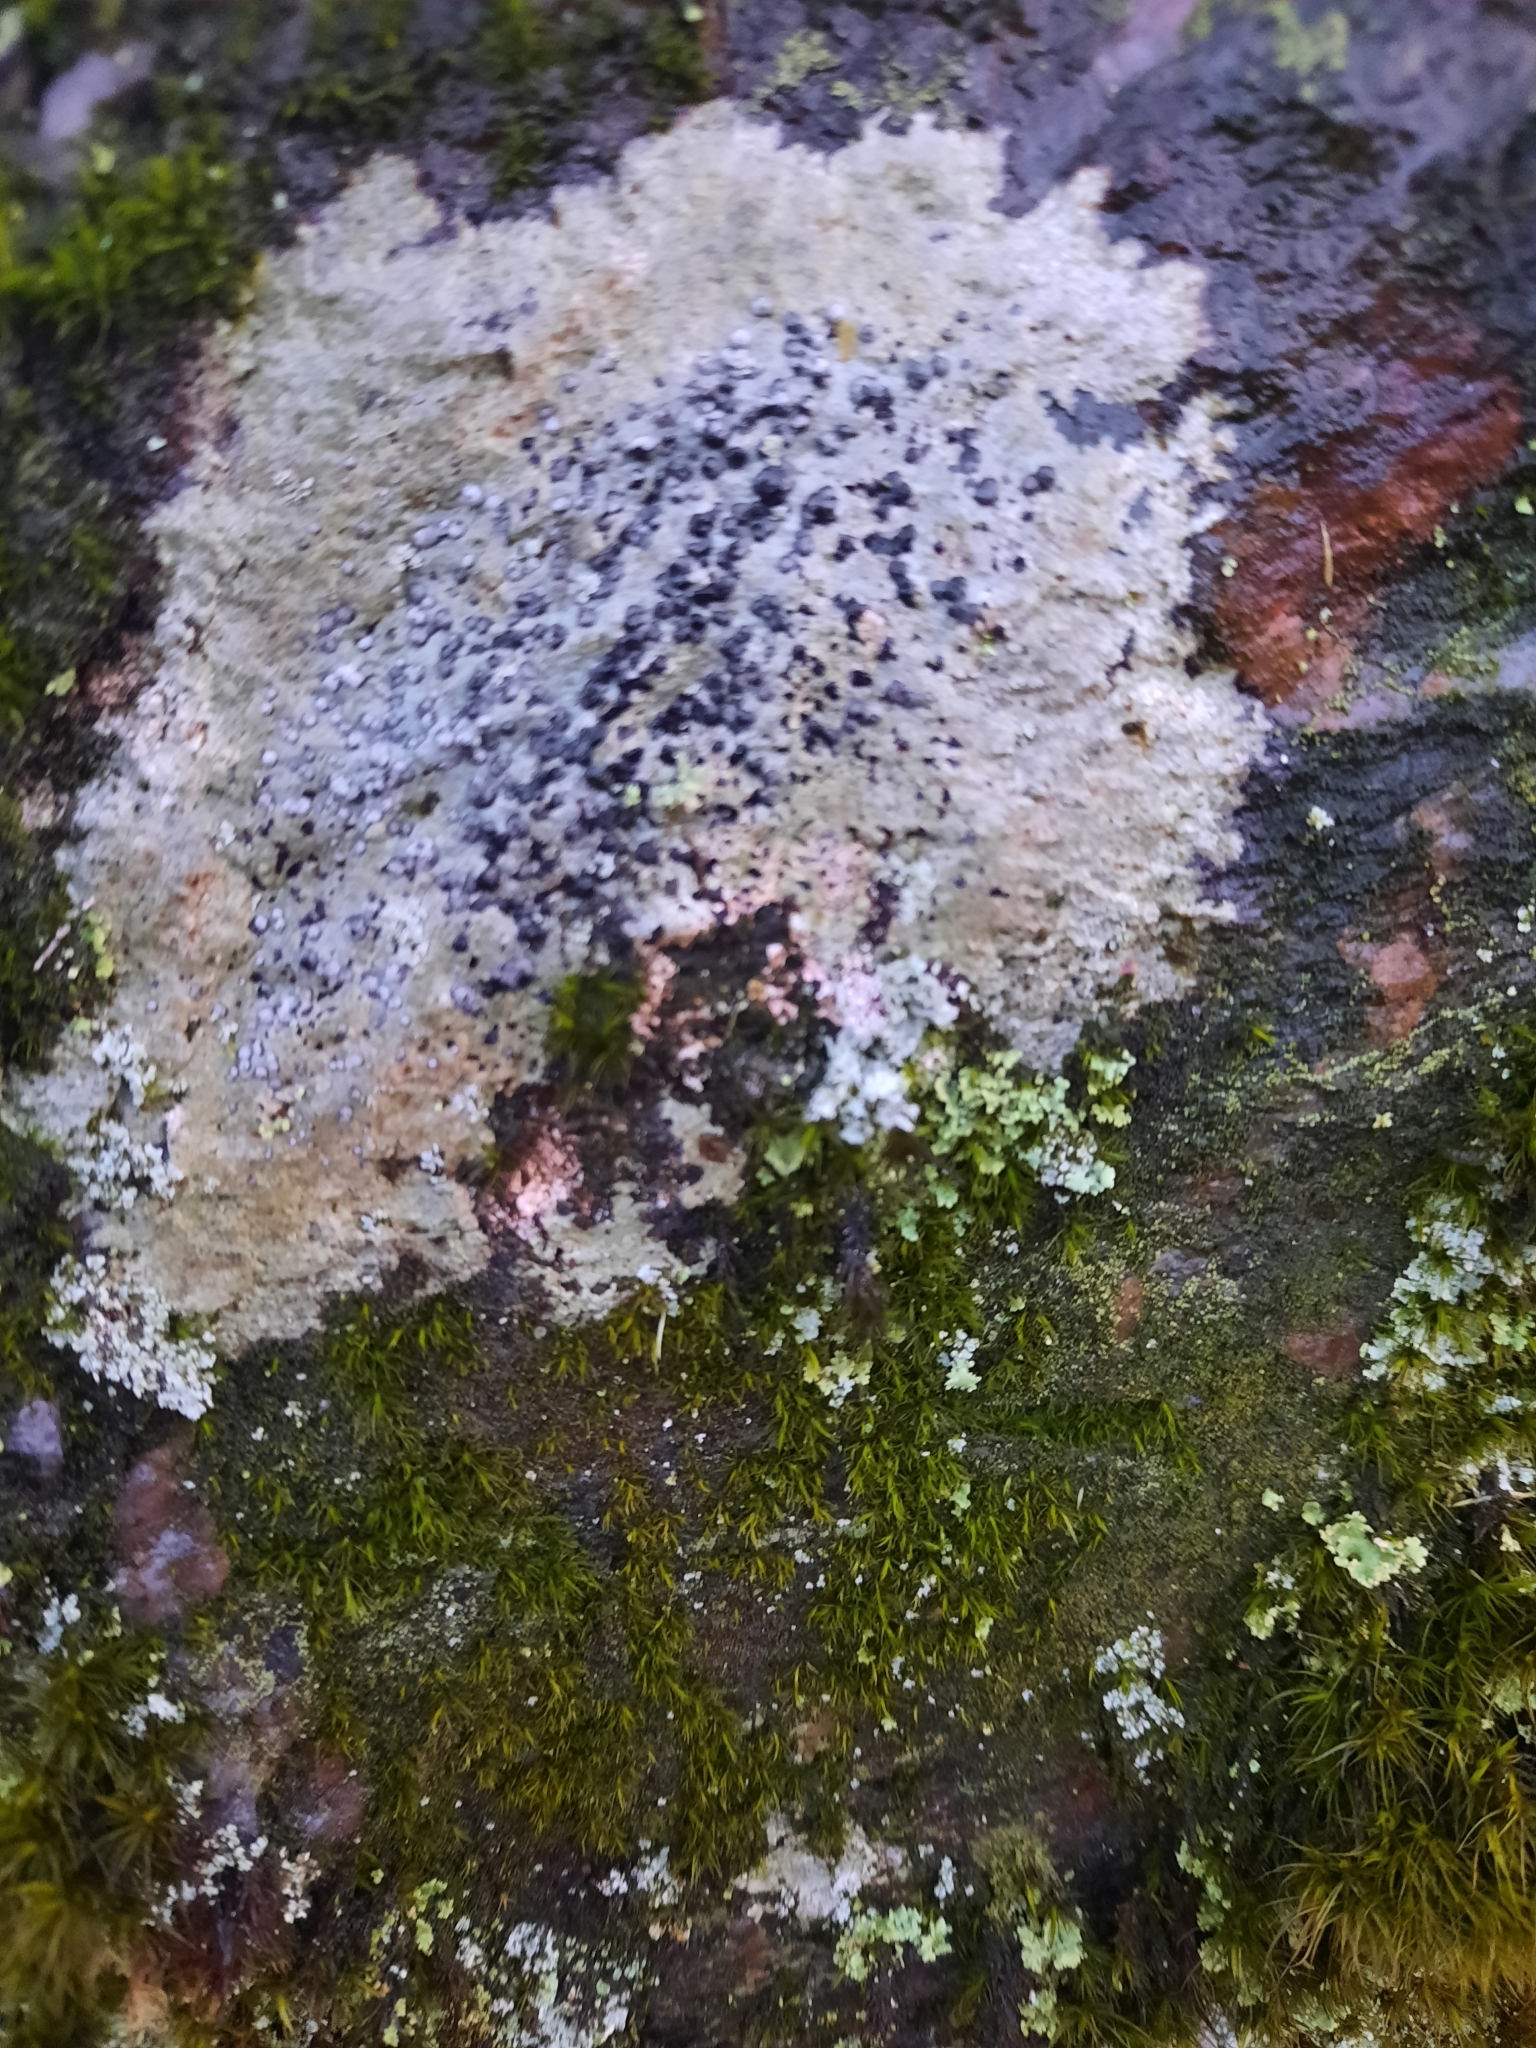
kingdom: Fungi
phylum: Ascomycota
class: Lecanoromycetes
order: Lecideales
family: Lecideaceae
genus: Porpidia
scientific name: Porpidia albocaerulescens
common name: Smokey-eyed boulder lichen
